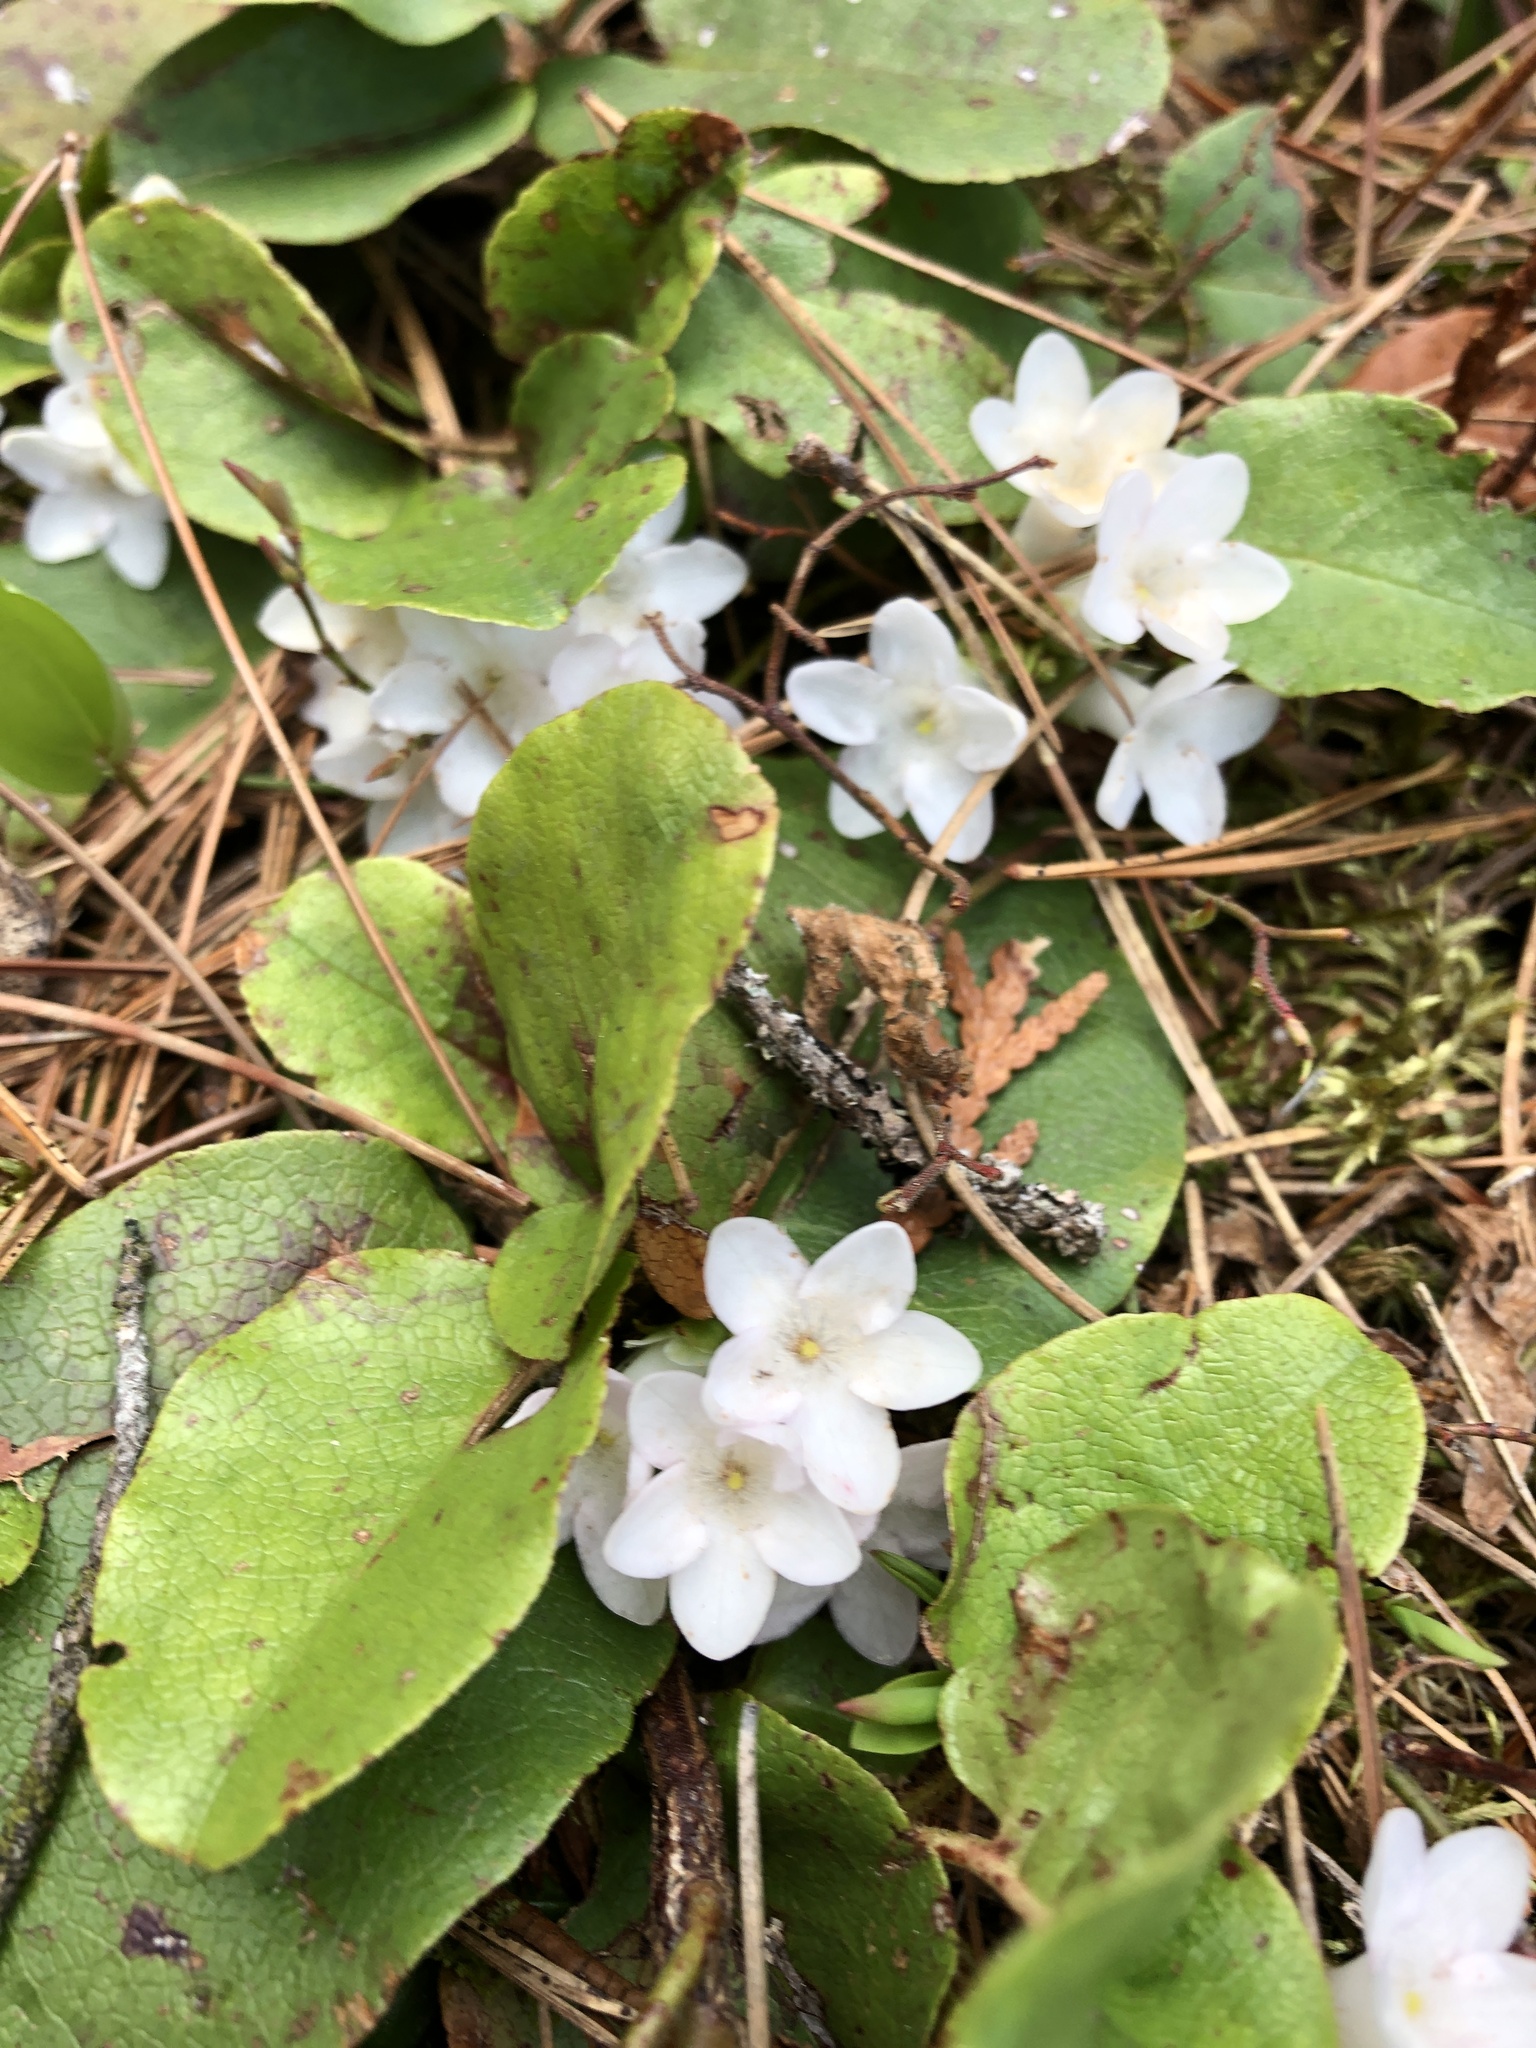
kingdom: Plantae
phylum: Tracheophyta
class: Magnoliopsida
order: Ericales
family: Ericaceae
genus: Epigaea
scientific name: Epigaea repens
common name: Gravelroot
